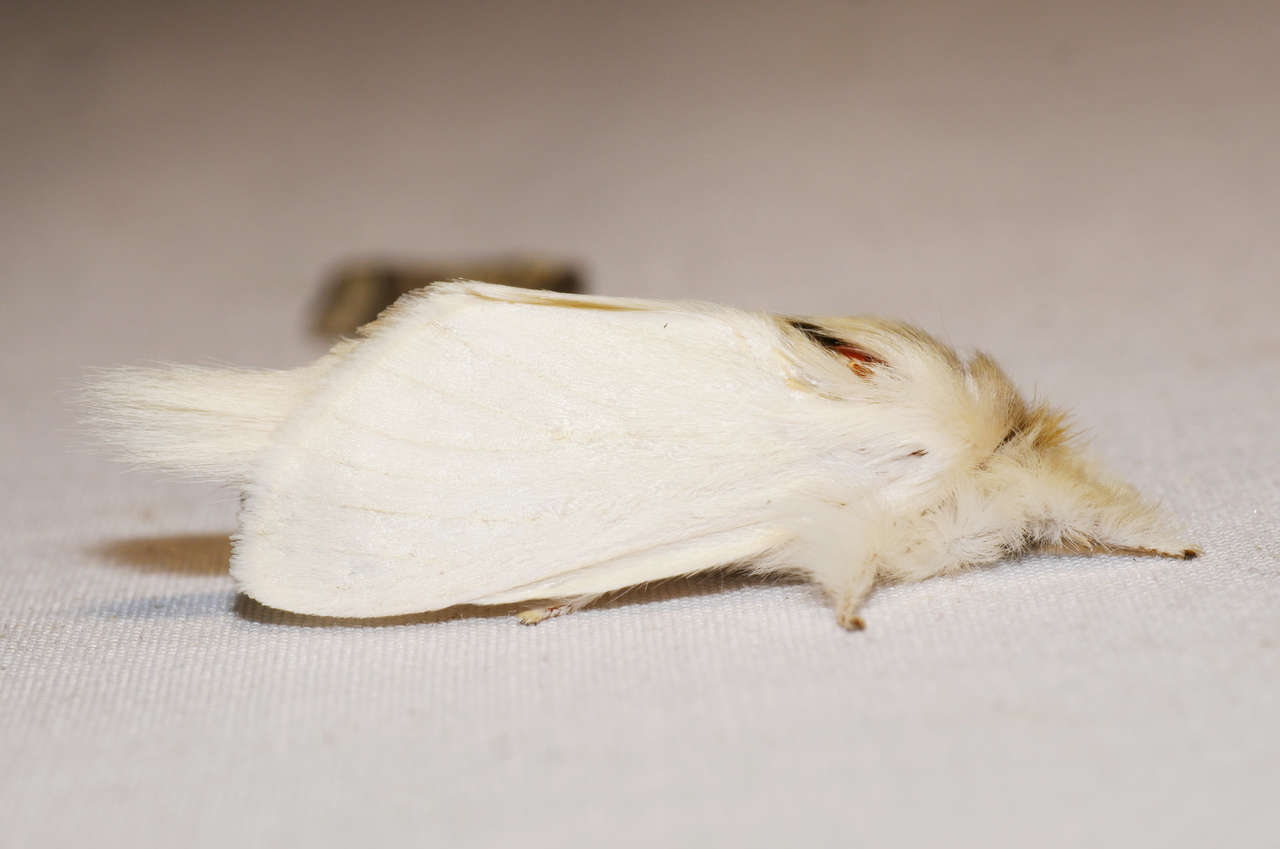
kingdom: Animalia
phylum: Arthropoda
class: Insecta
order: Lepidoptera
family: Notodontidae
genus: Trichiocercus
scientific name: Trichiocercus sparshalli
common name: Long-tailed satin
